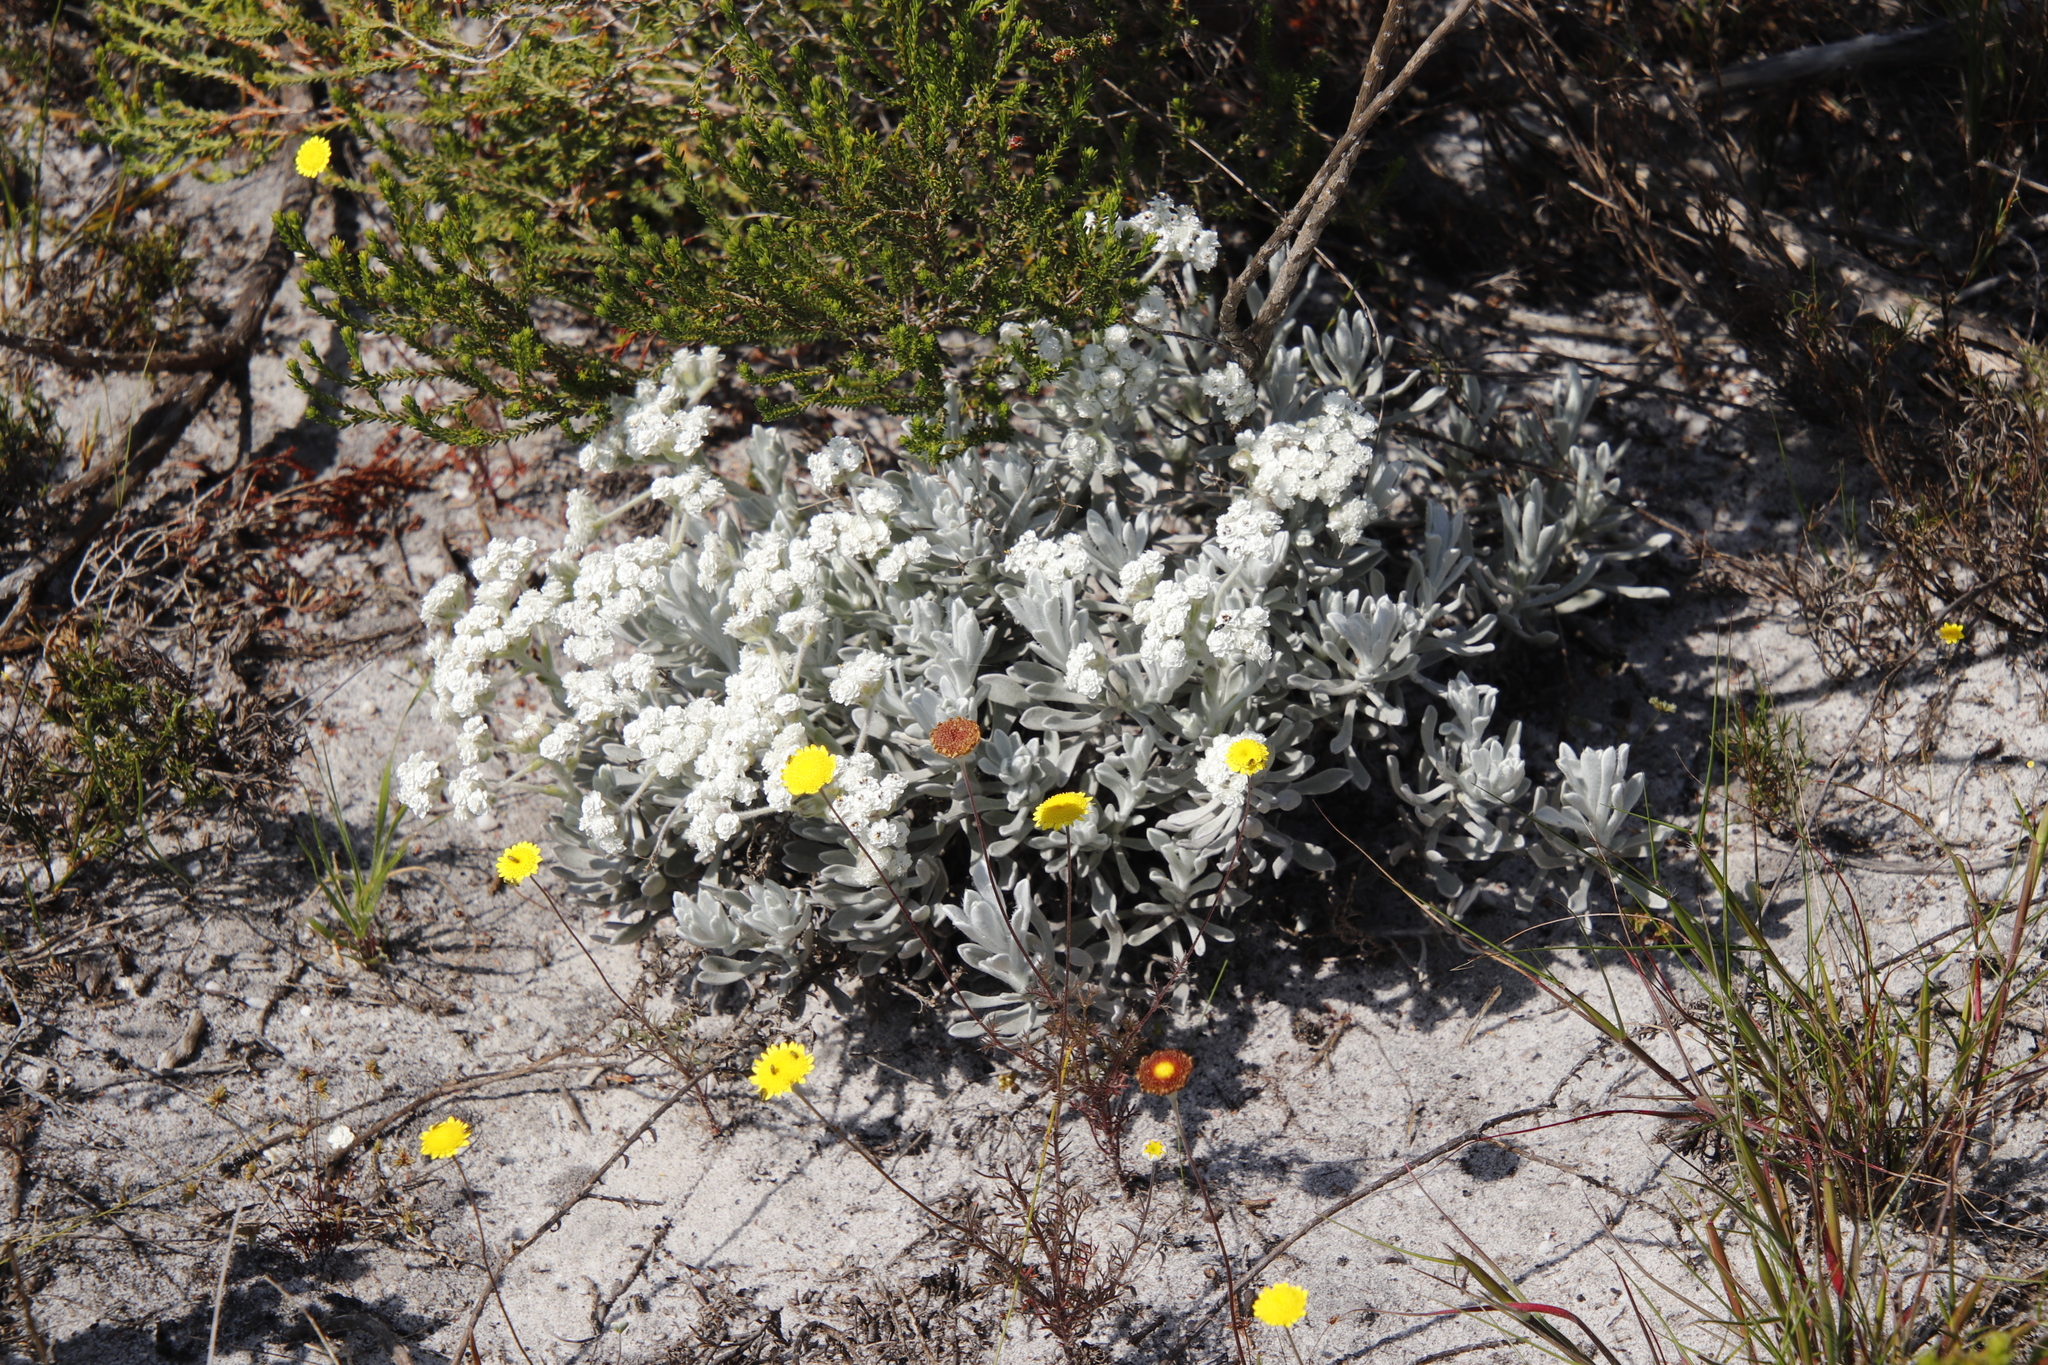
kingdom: Plantae
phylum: Tracheophyta
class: Magnoliopsida
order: Asterales
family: Asteraceae
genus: Petalacte
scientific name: Petalacte coronata
